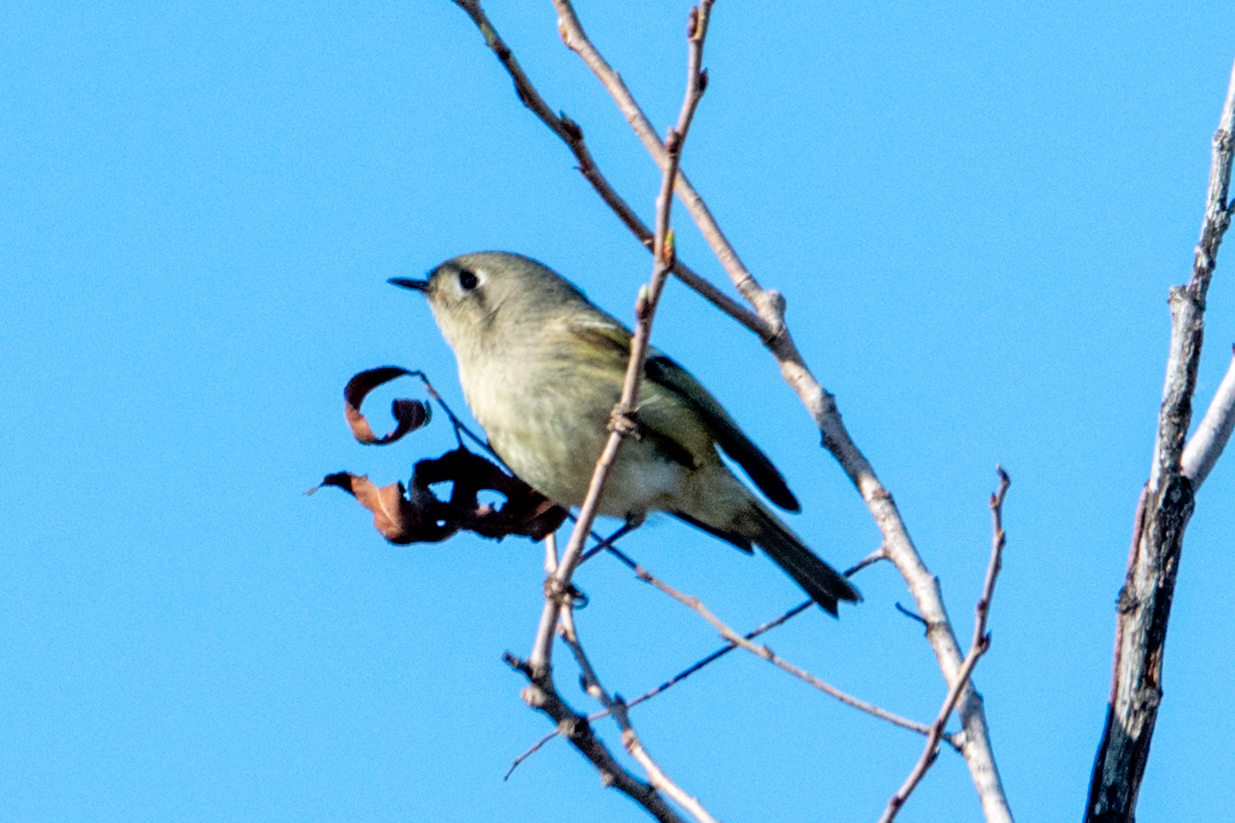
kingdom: Animalia
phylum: Chordata
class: Aves
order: Passeriformes
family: Regulidae
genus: Regulus
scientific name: Regulus calendula
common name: Ruby-crowned kinglet
